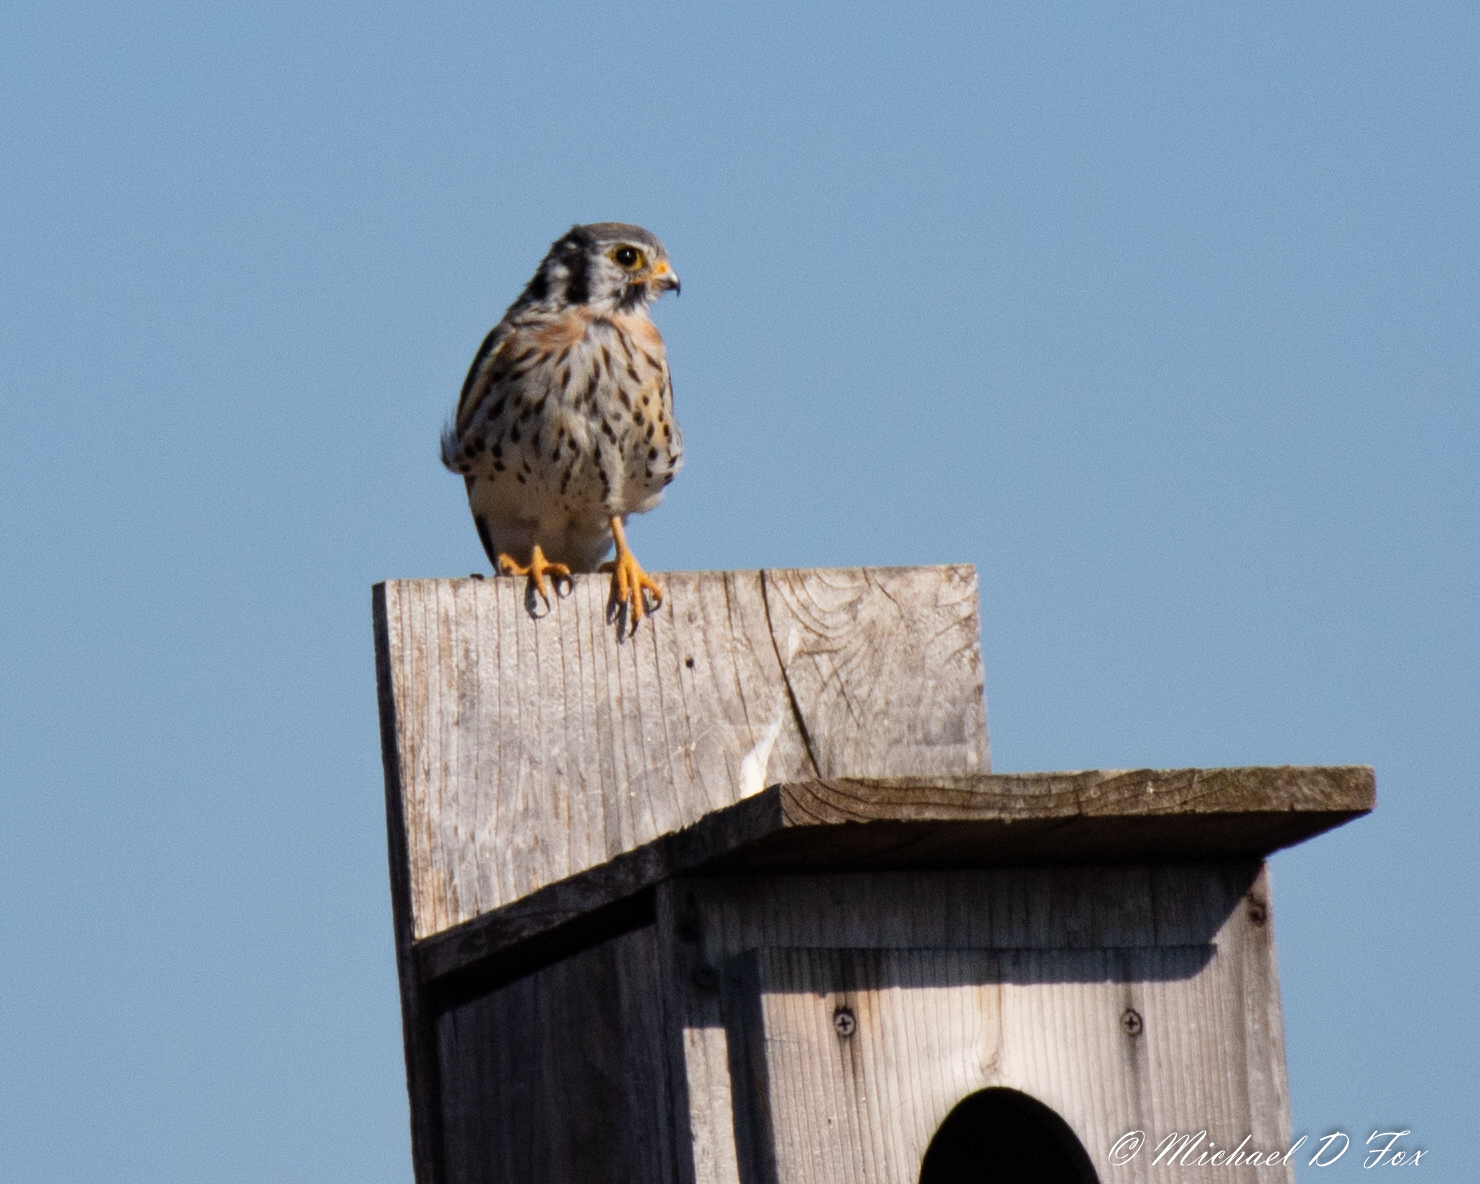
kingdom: Animalia
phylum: Chordata
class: Aves
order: Falconiformes
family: Falconidae
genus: Falco
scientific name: Falco sparverius
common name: American kestrel
